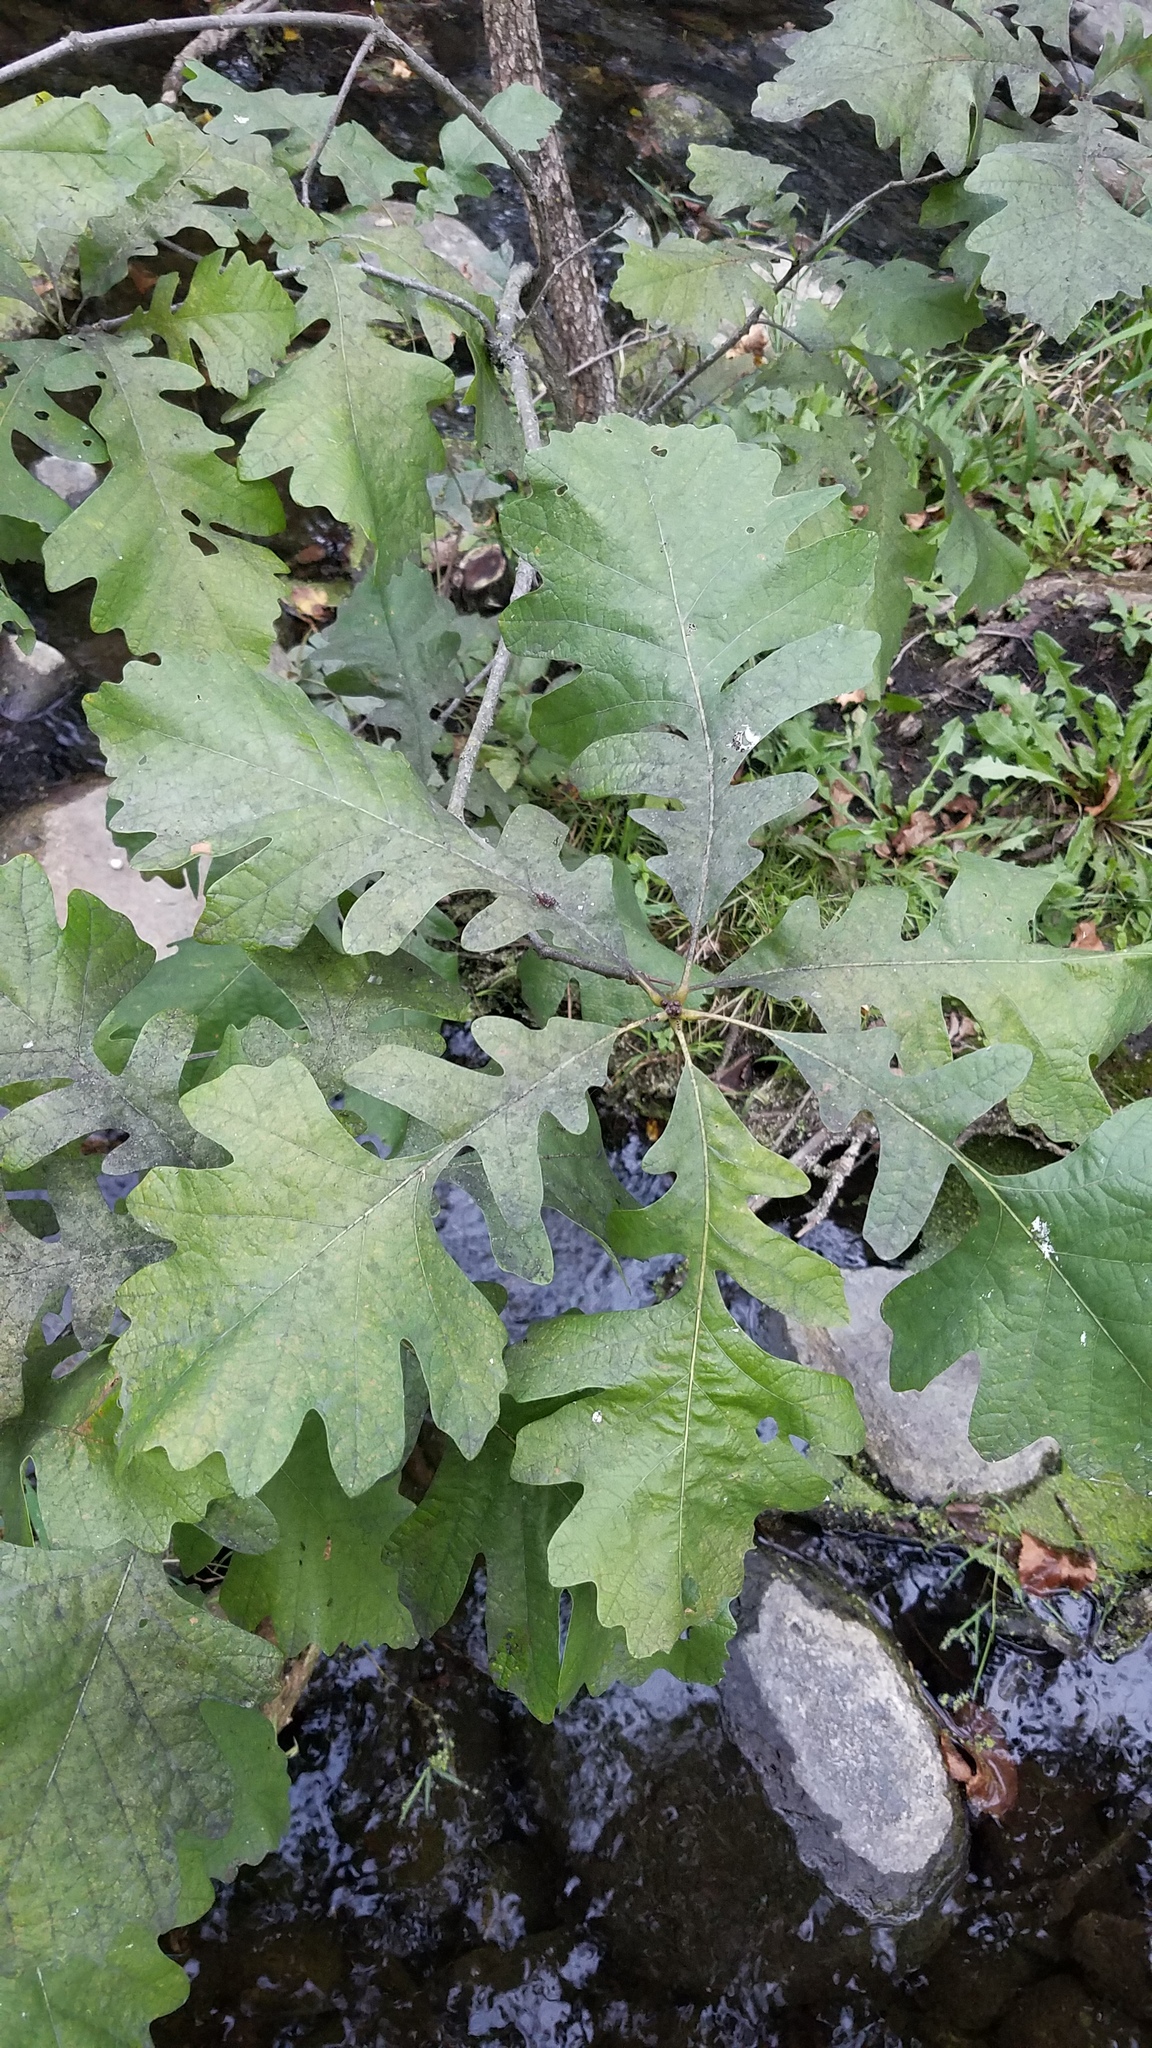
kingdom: Plantae
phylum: Tracheophyta
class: Magnoliopsida
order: Fagales
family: Fagaceae
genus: Quercus
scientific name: Quercus macrocarpa
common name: Bur oak
